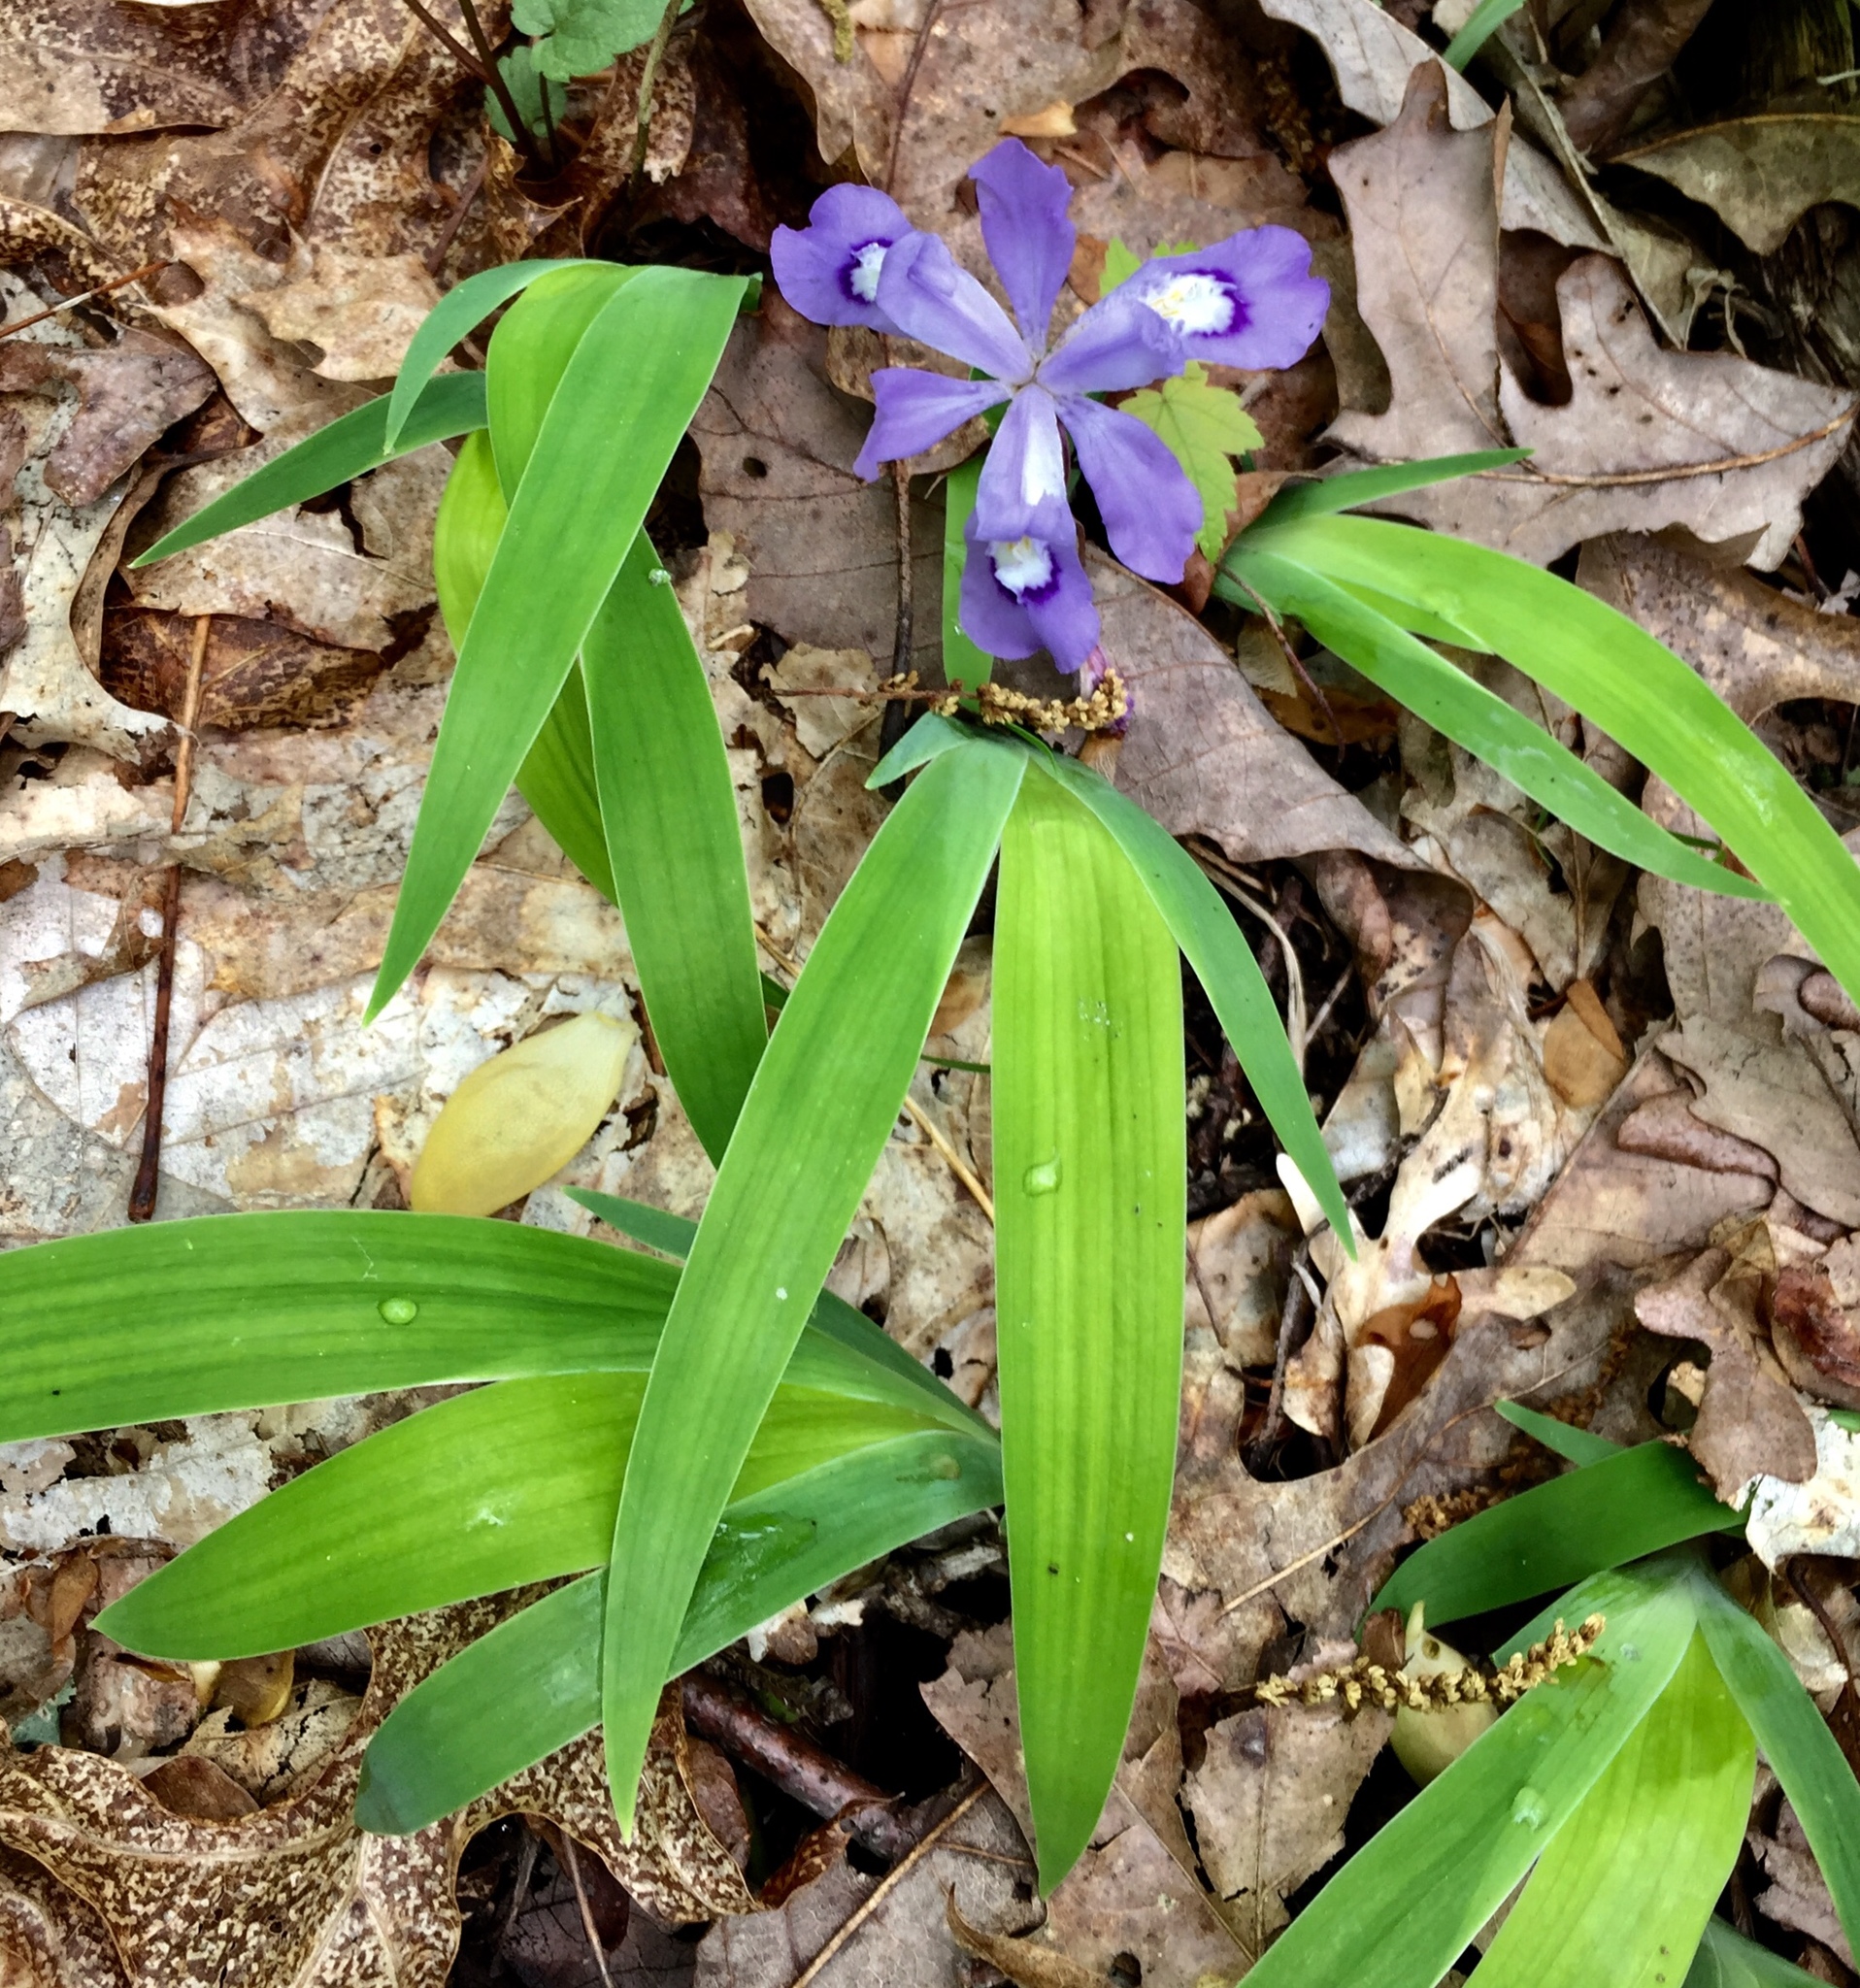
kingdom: Plantae
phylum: Tracheophyta
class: Liliopsida
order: Asparagales
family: Iridaceae
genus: Iris
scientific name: Iris cristata
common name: Crested iris
